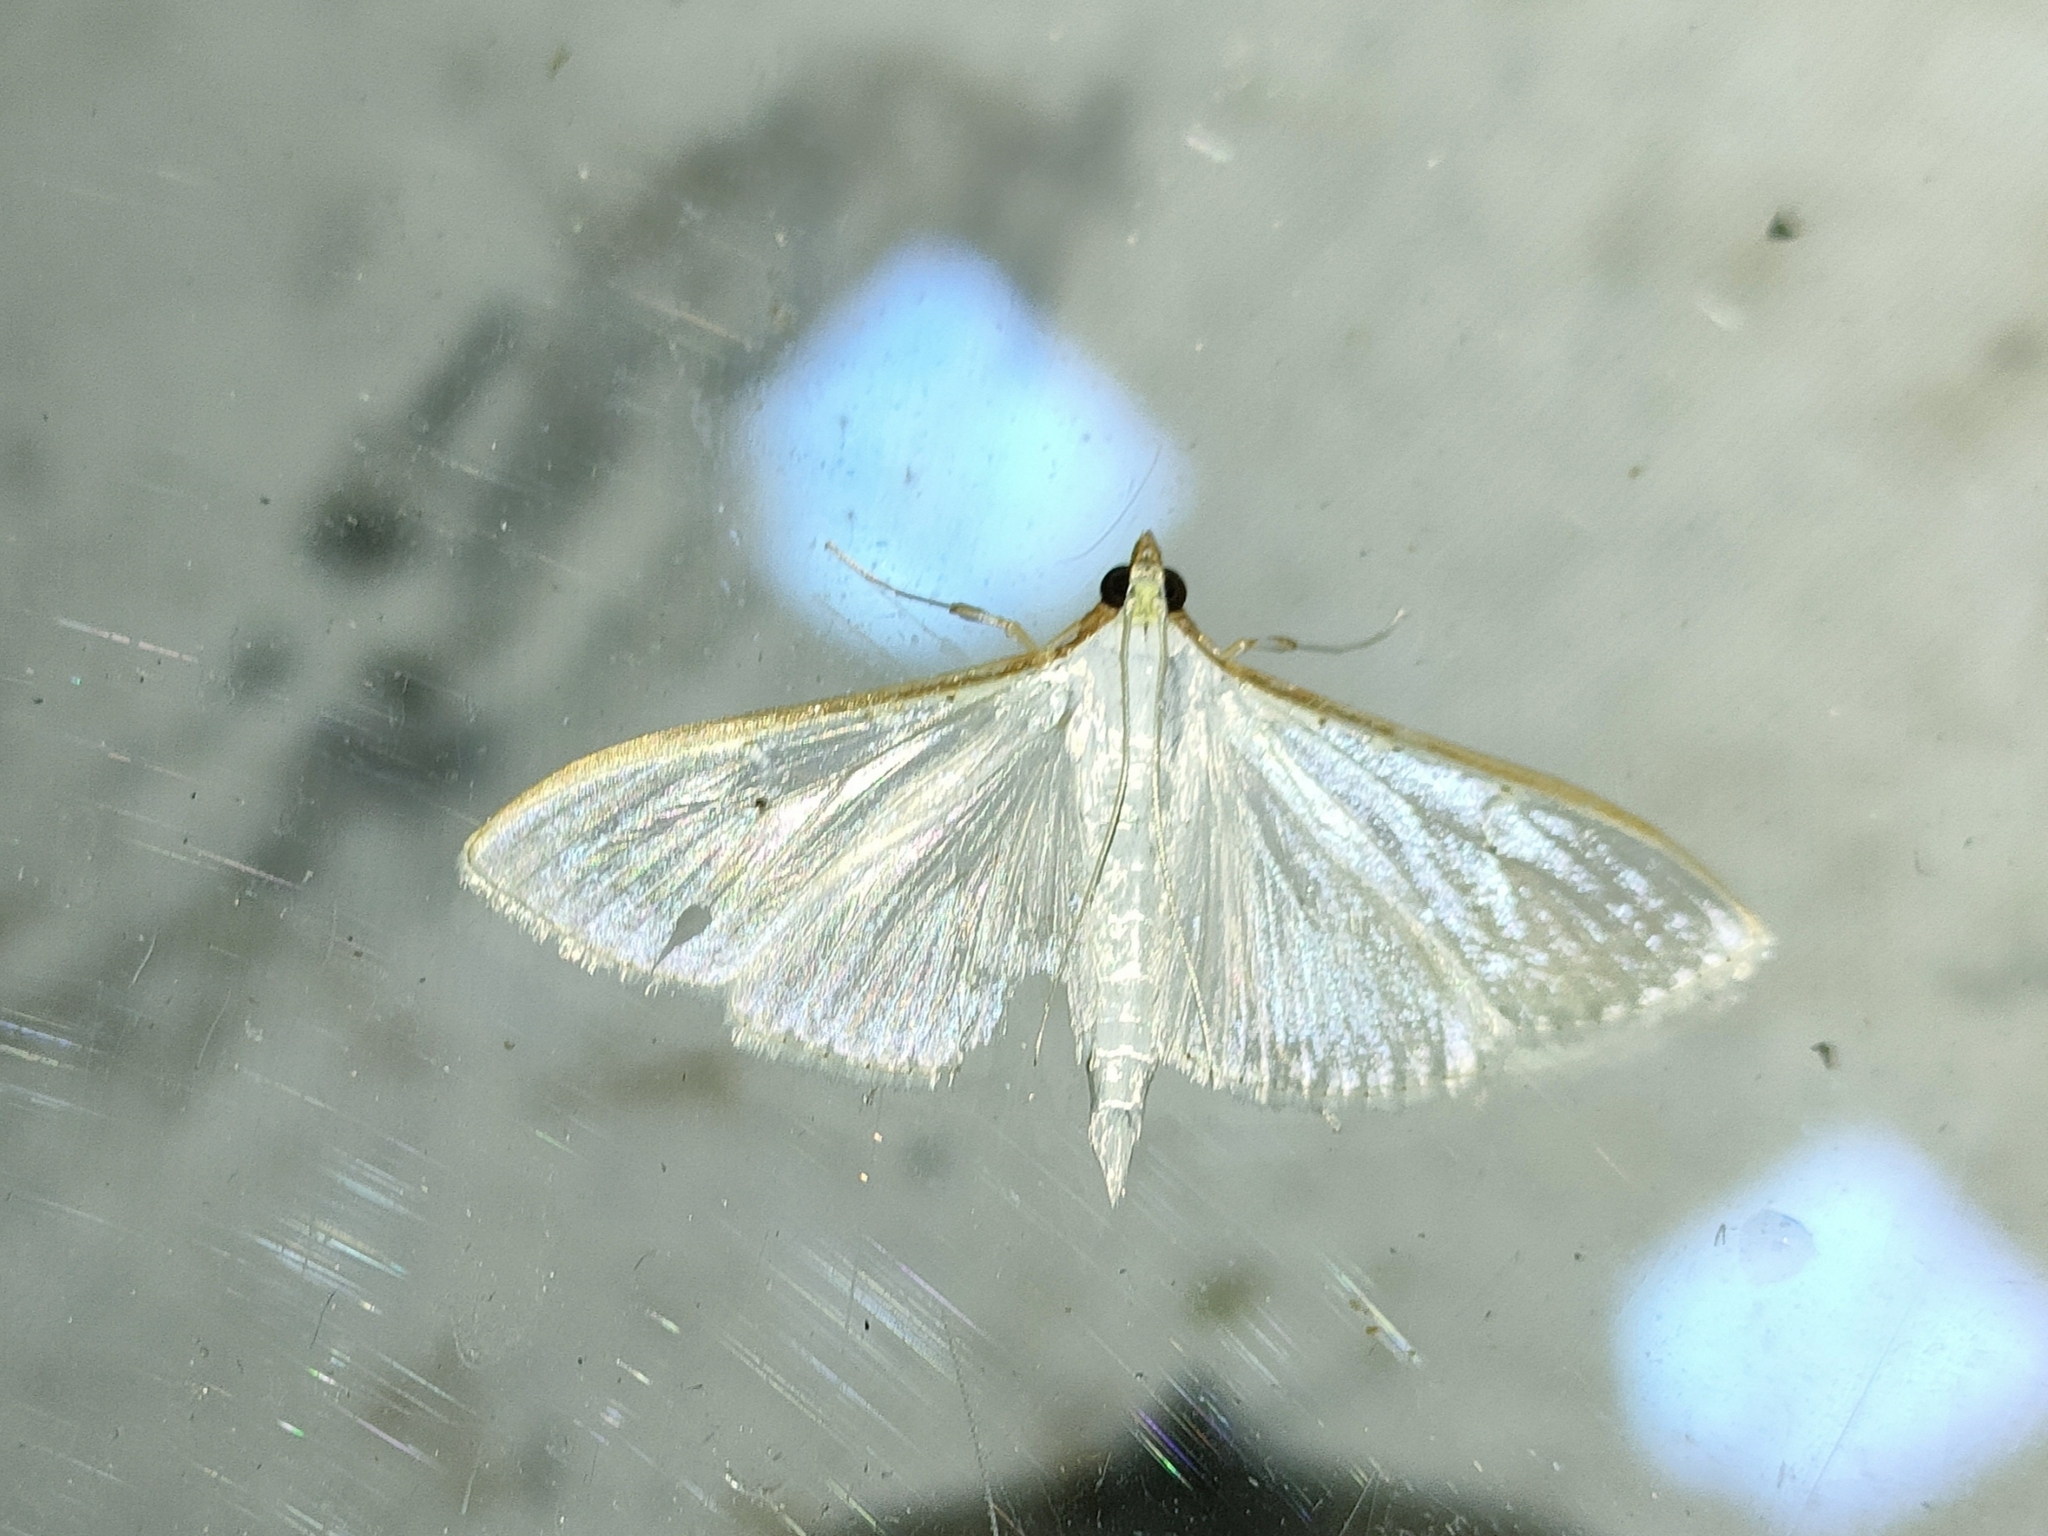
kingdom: Animalia
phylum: Arthropoda
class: Insecta
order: Lepidoptera
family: Crambidae
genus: Palpita
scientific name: Palpita vitrealis
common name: Olive-tree pearl
